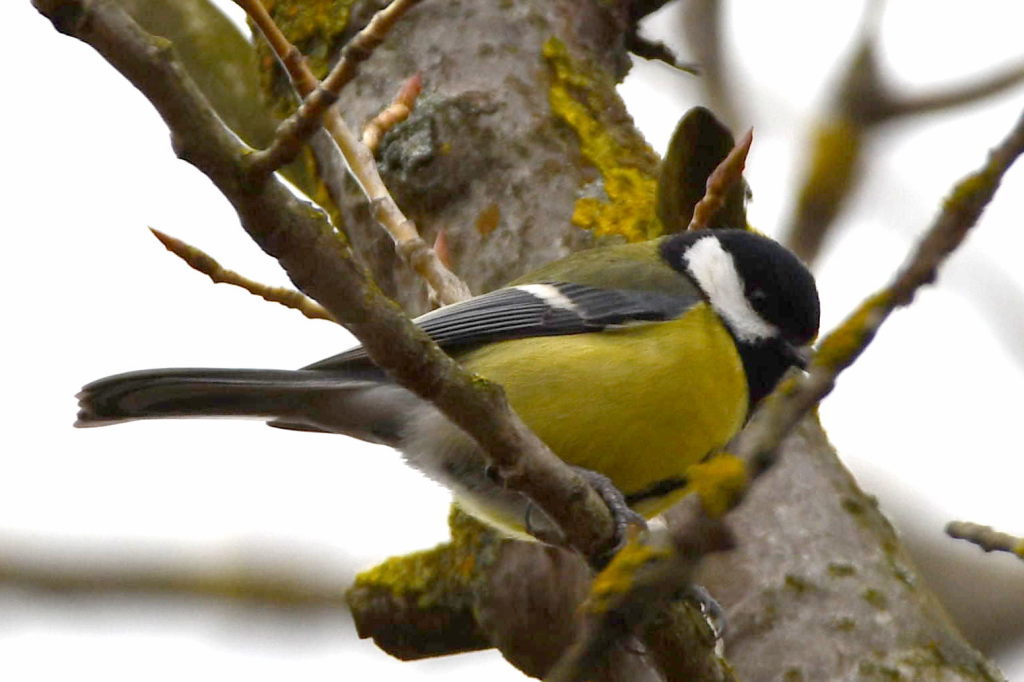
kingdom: Animalia
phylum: Chordata
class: Aves
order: Passeriformes
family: Paridae
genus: Parus
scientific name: Parus major
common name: Great tit
